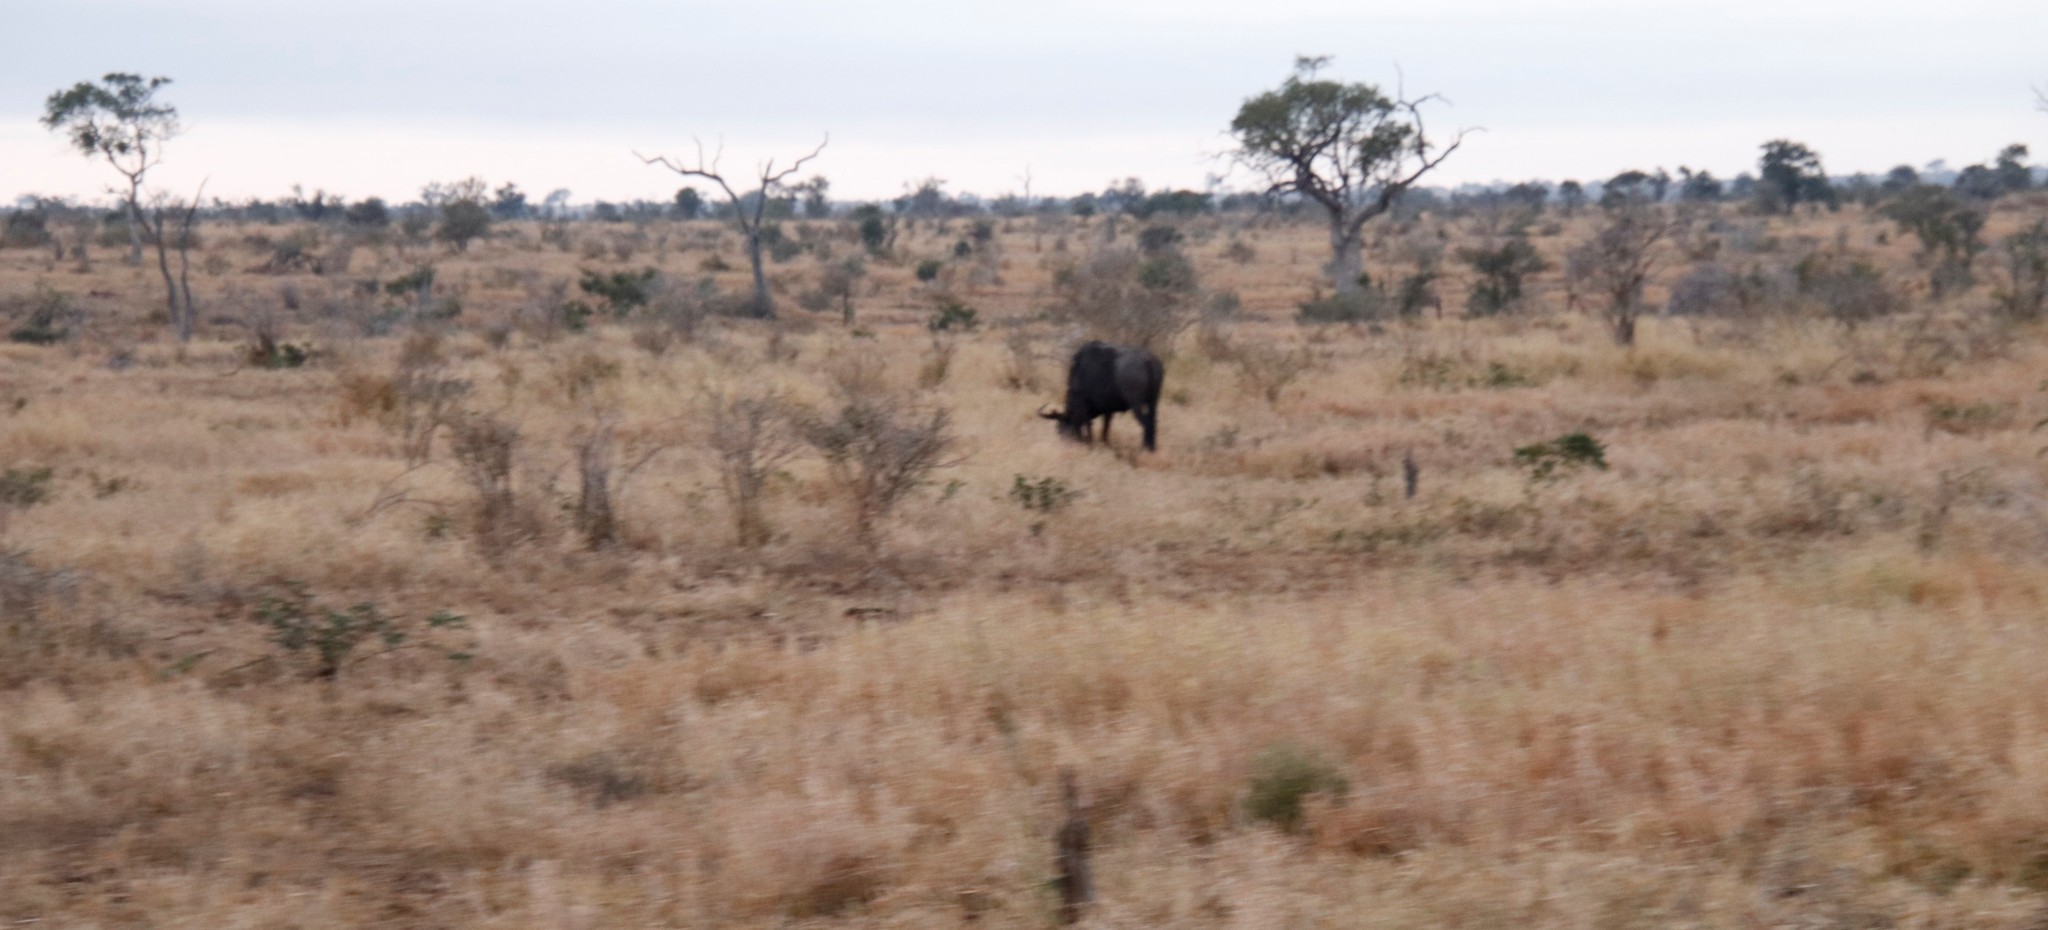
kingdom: Animalia
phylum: Chordata
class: Mammalia
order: Artiodactyla
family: Bovidae
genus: Connochaetes
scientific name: Connochaetes taurinus
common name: Blue wildebeest
